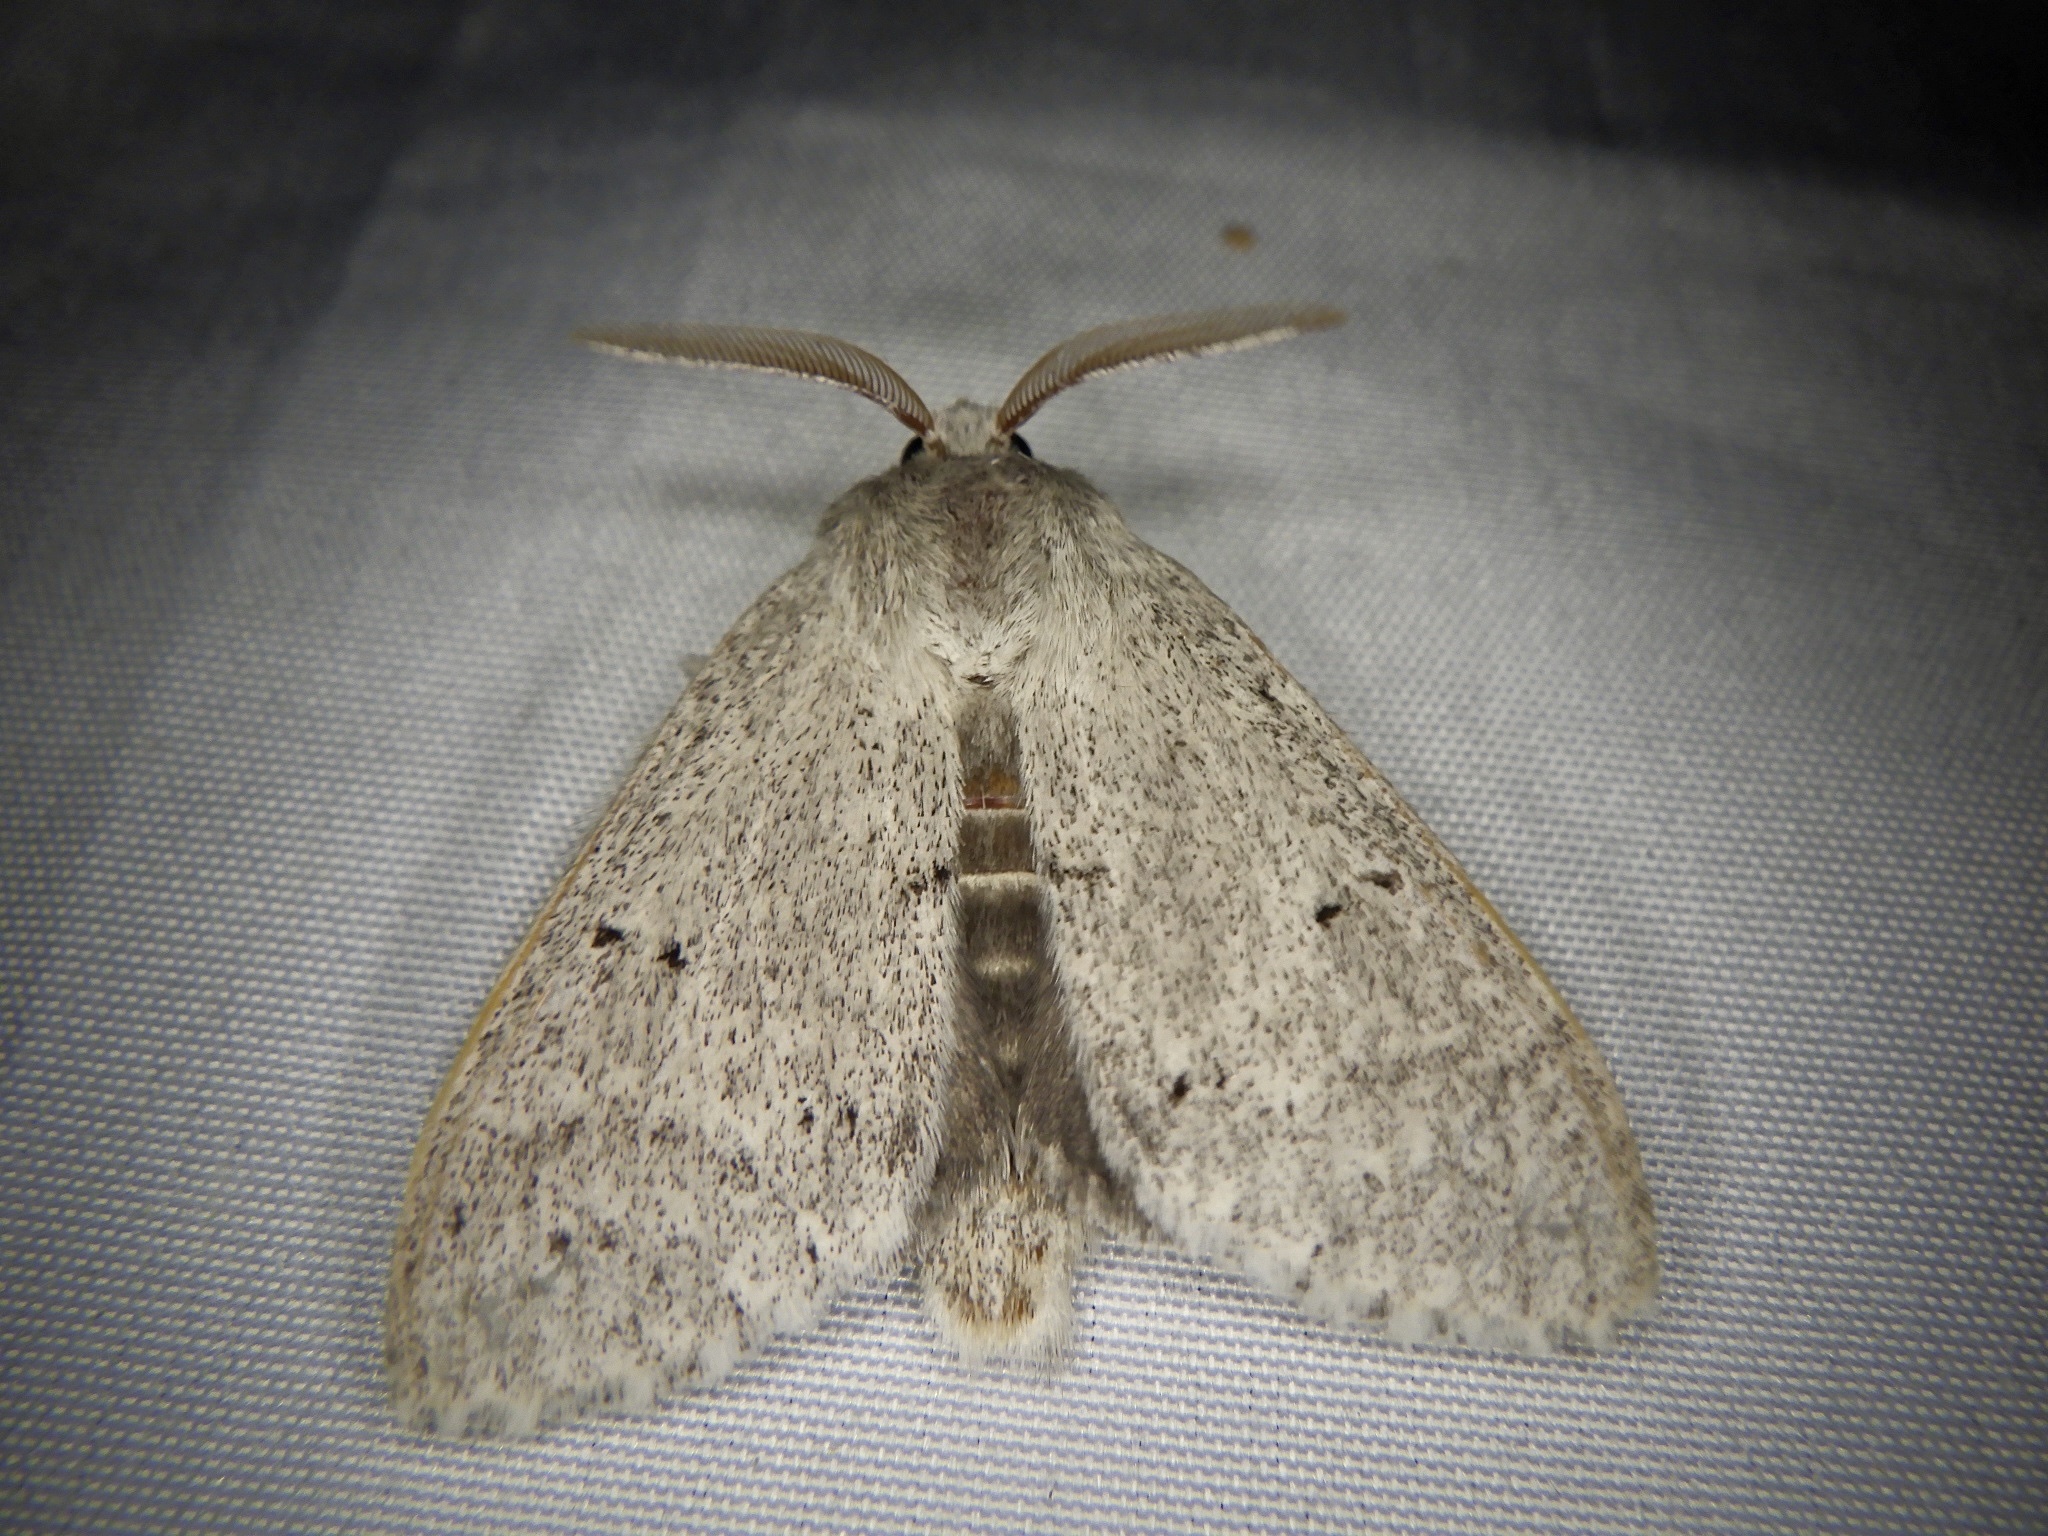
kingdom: Animalia
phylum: Arthropoda
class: Insecta
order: Lepidoptera
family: Notodontidae
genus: Cnethodonta
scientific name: Cnethodonta grisescens
